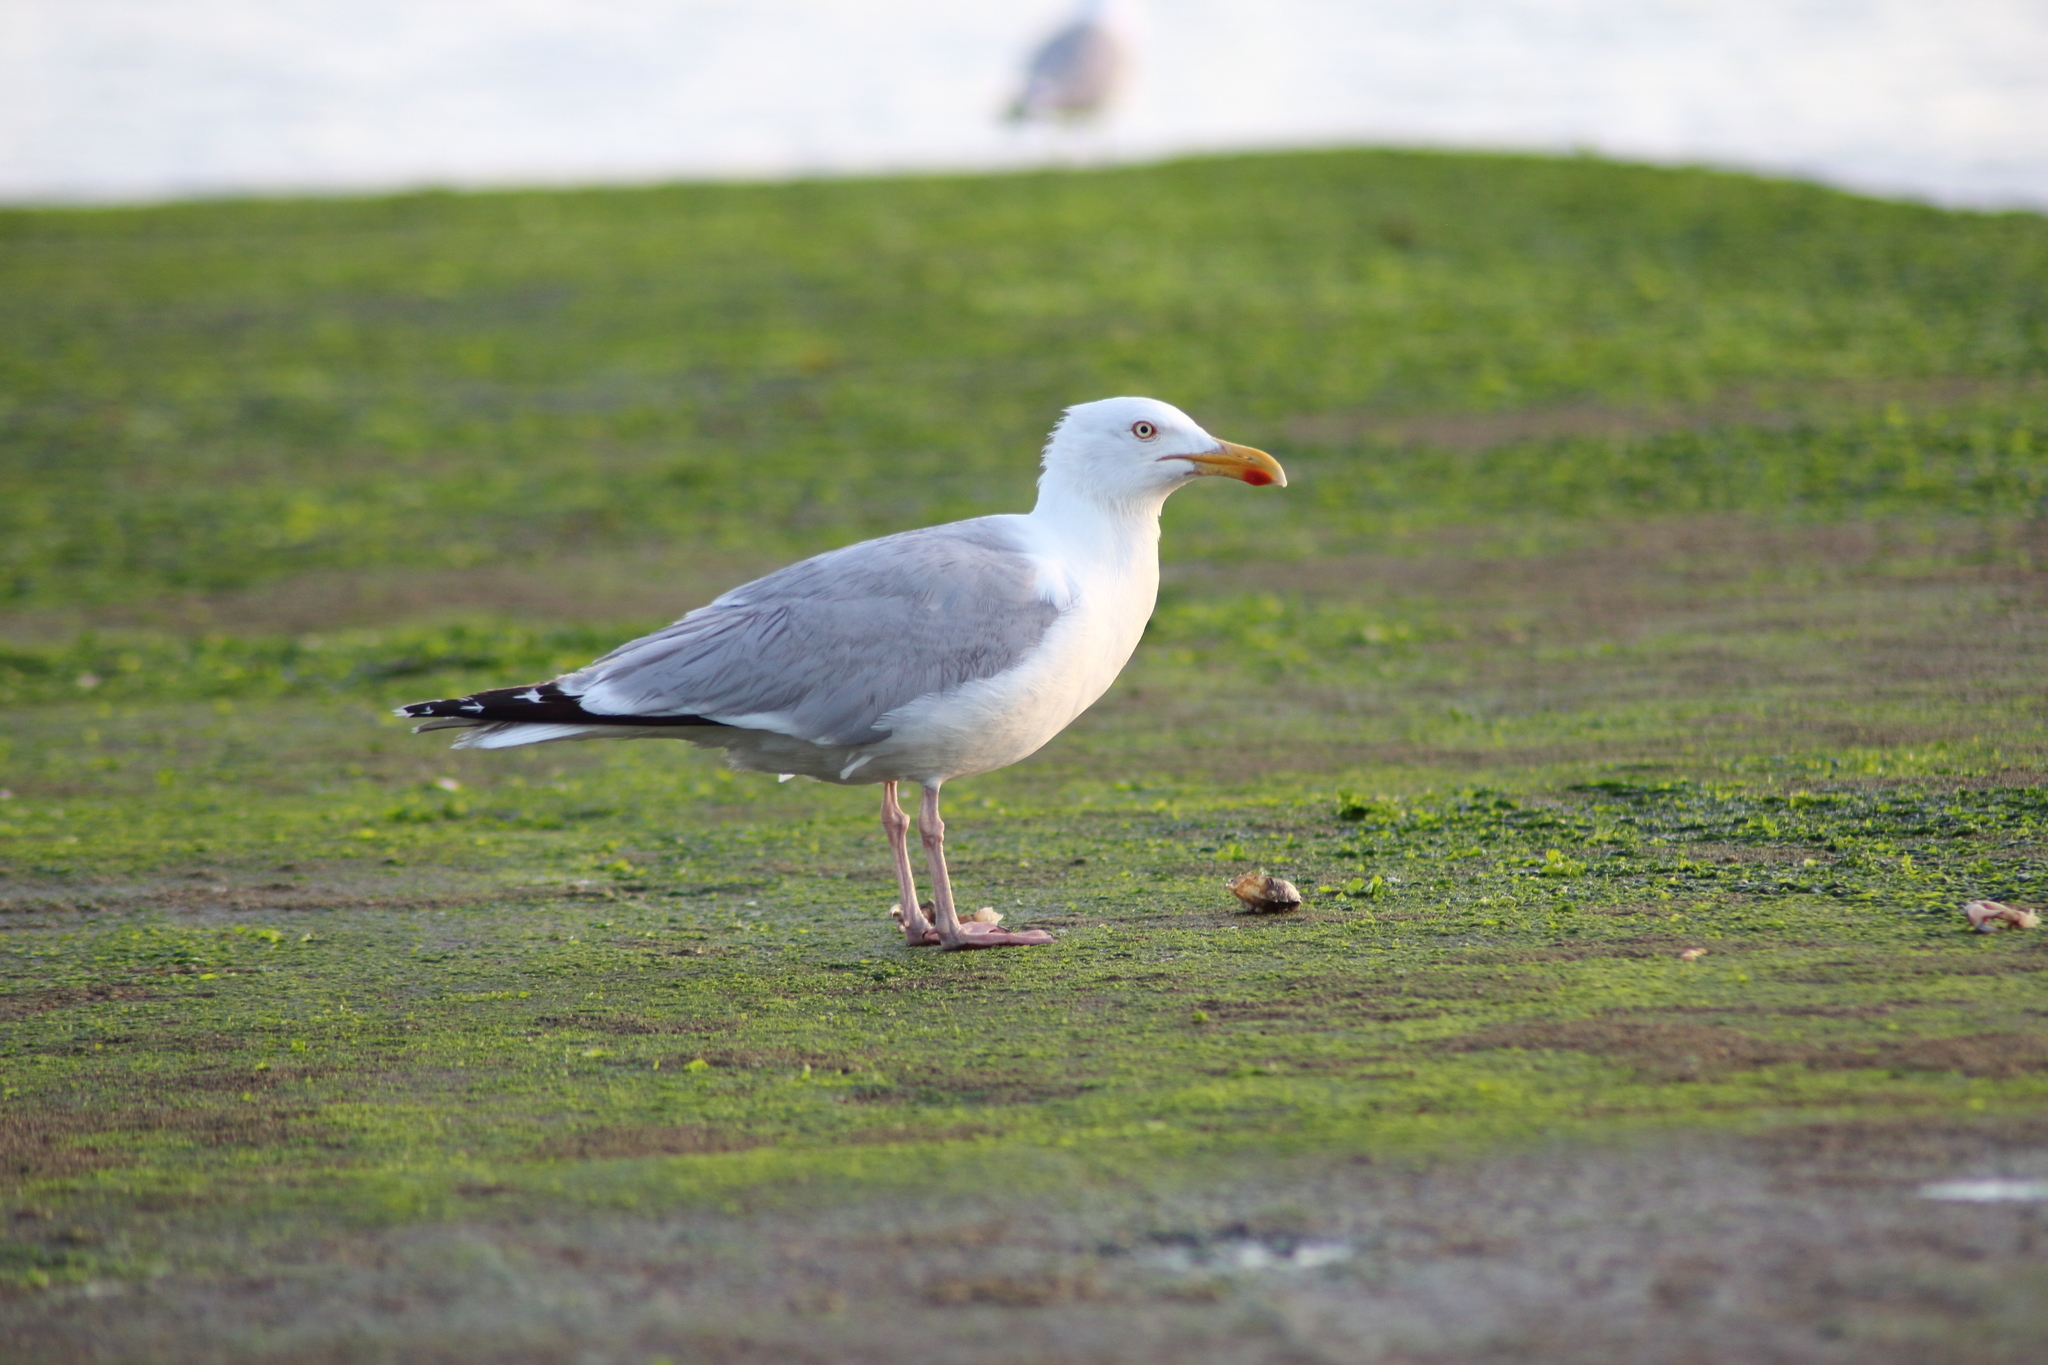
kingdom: Animalia
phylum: Chordata
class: Aves
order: Charadriiformes
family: Laridae
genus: Larus
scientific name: Larus argentatus
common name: Herring gull
